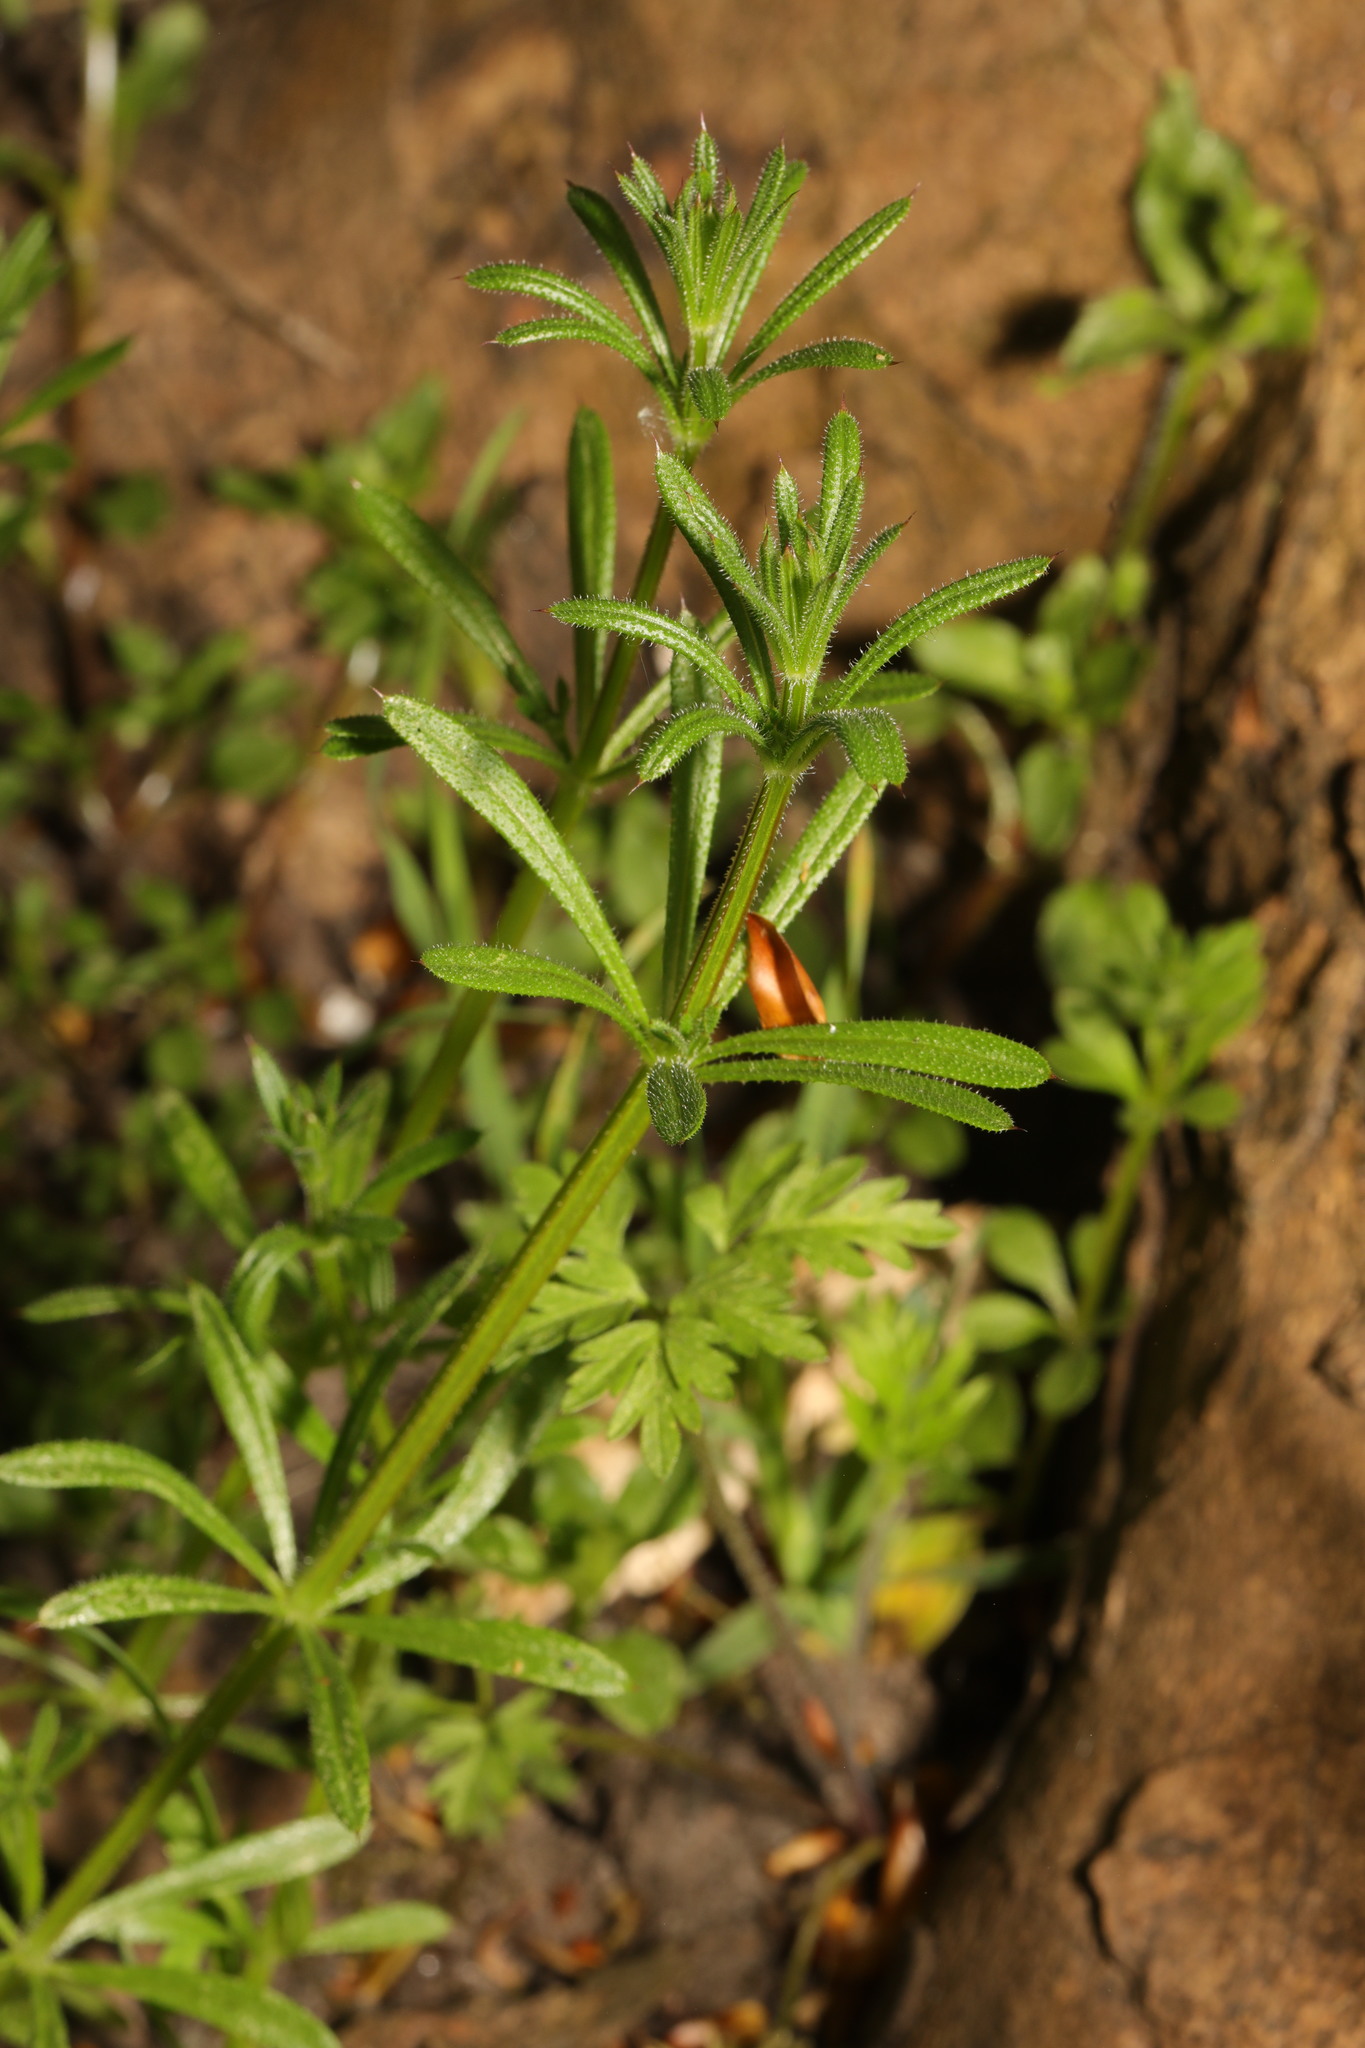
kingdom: Plantae
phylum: Tracheophyta
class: Magnoliopsida
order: Gentianales
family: Rubiaceae
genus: Galium
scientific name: Galium aparine
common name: Cleavers
